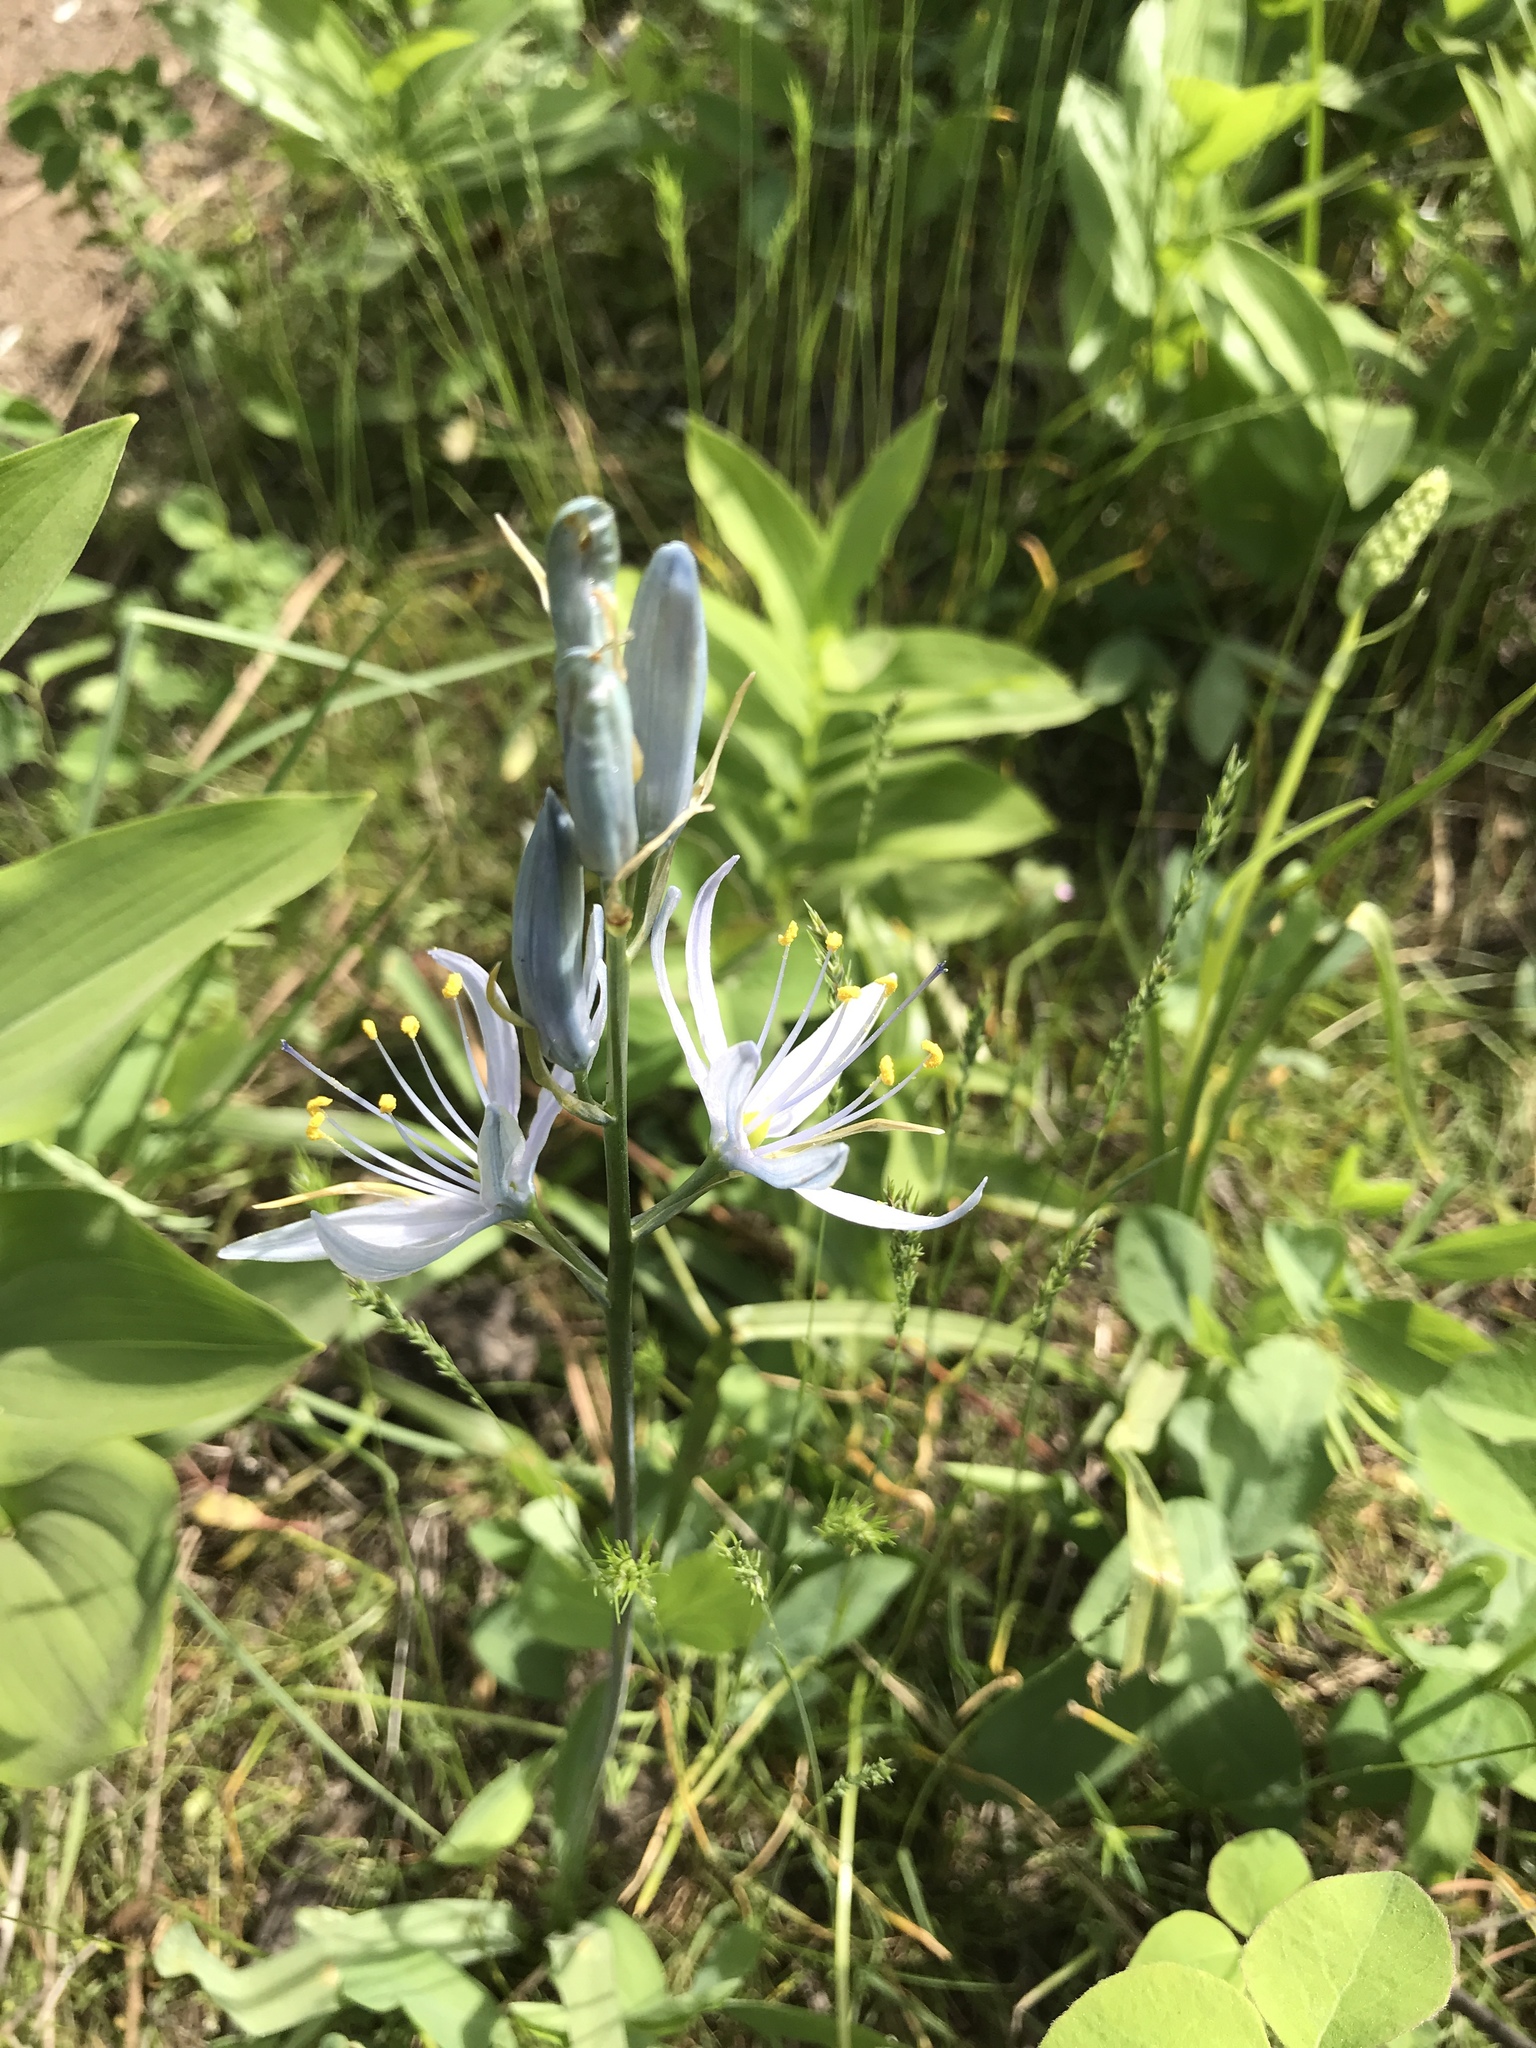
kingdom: Plantae
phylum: Tracheophyta
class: Liliopsida
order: Asparagales
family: Asparagaceae
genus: Camassia
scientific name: Camassia quamash
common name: Common camas
